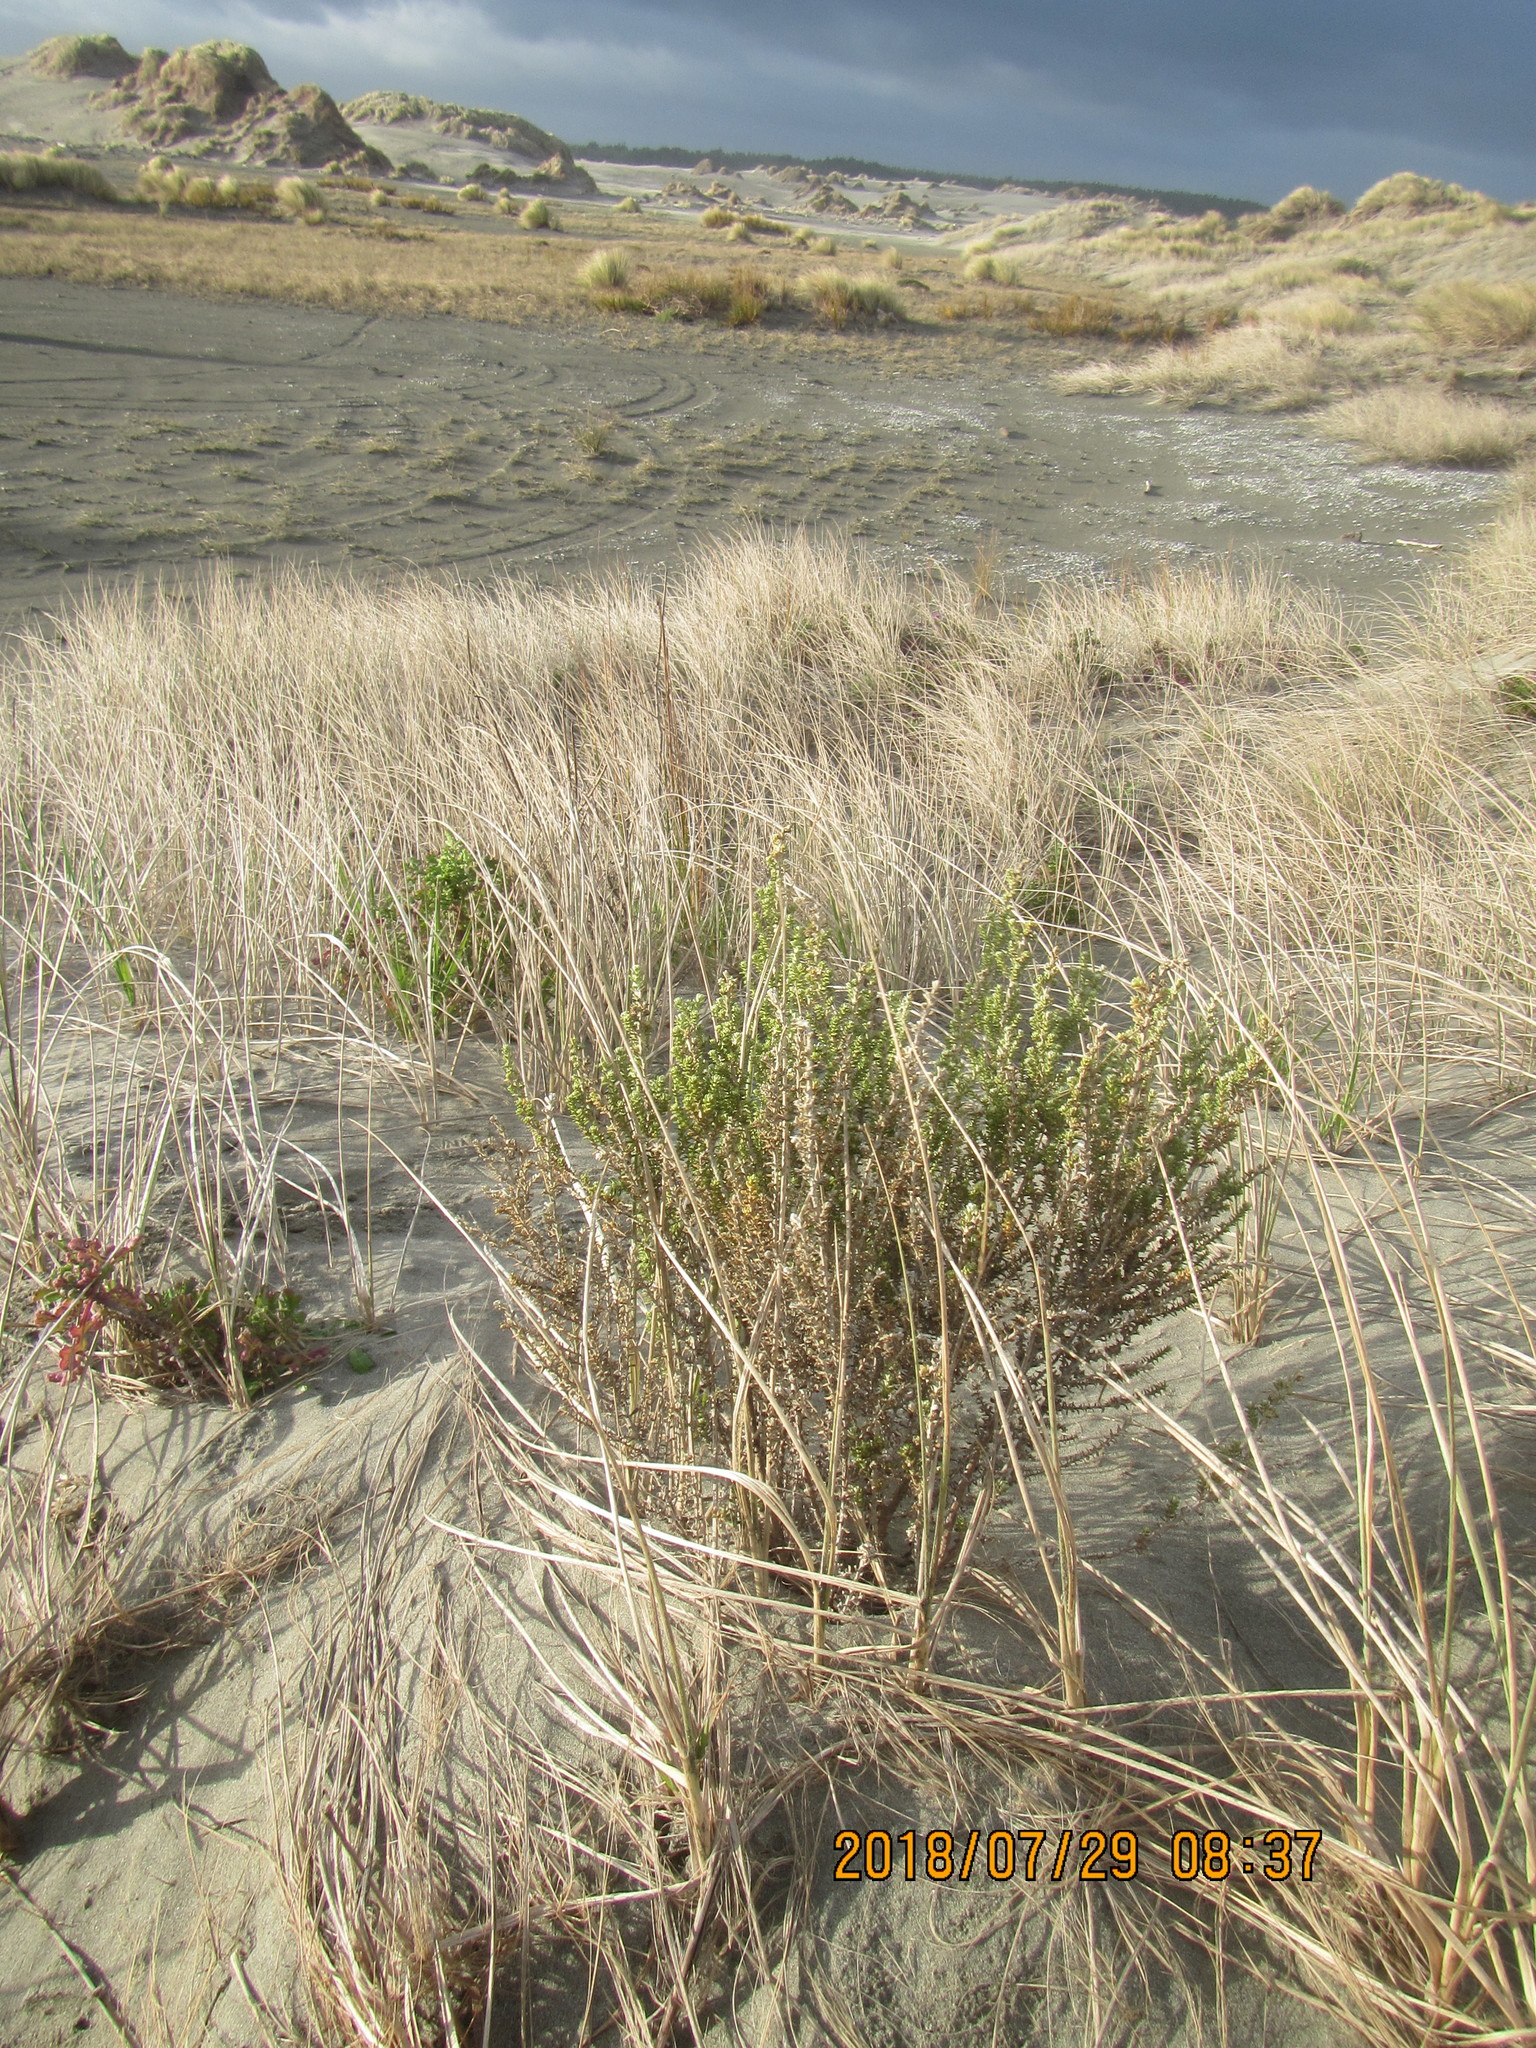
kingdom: Plantae
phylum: Tracheophyta
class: Magnoliopsida
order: Asterales
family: Asteraceae
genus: Ozothamnus
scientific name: Ozothamnus leptophyllus
